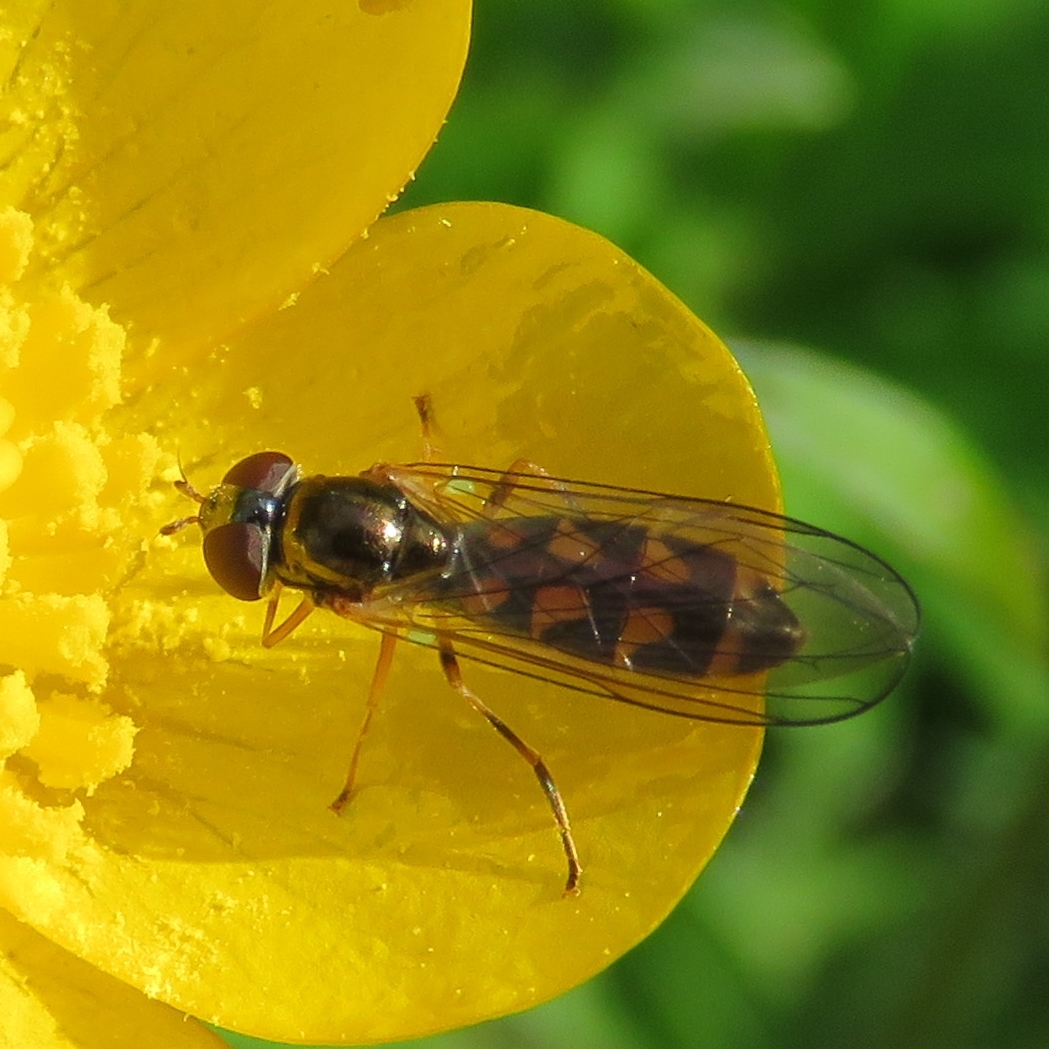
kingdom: Animalia
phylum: Arthropoda
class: Insecta
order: Diptera
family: Syrphidae
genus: Melanostoma
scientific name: Melanostoma scalare
